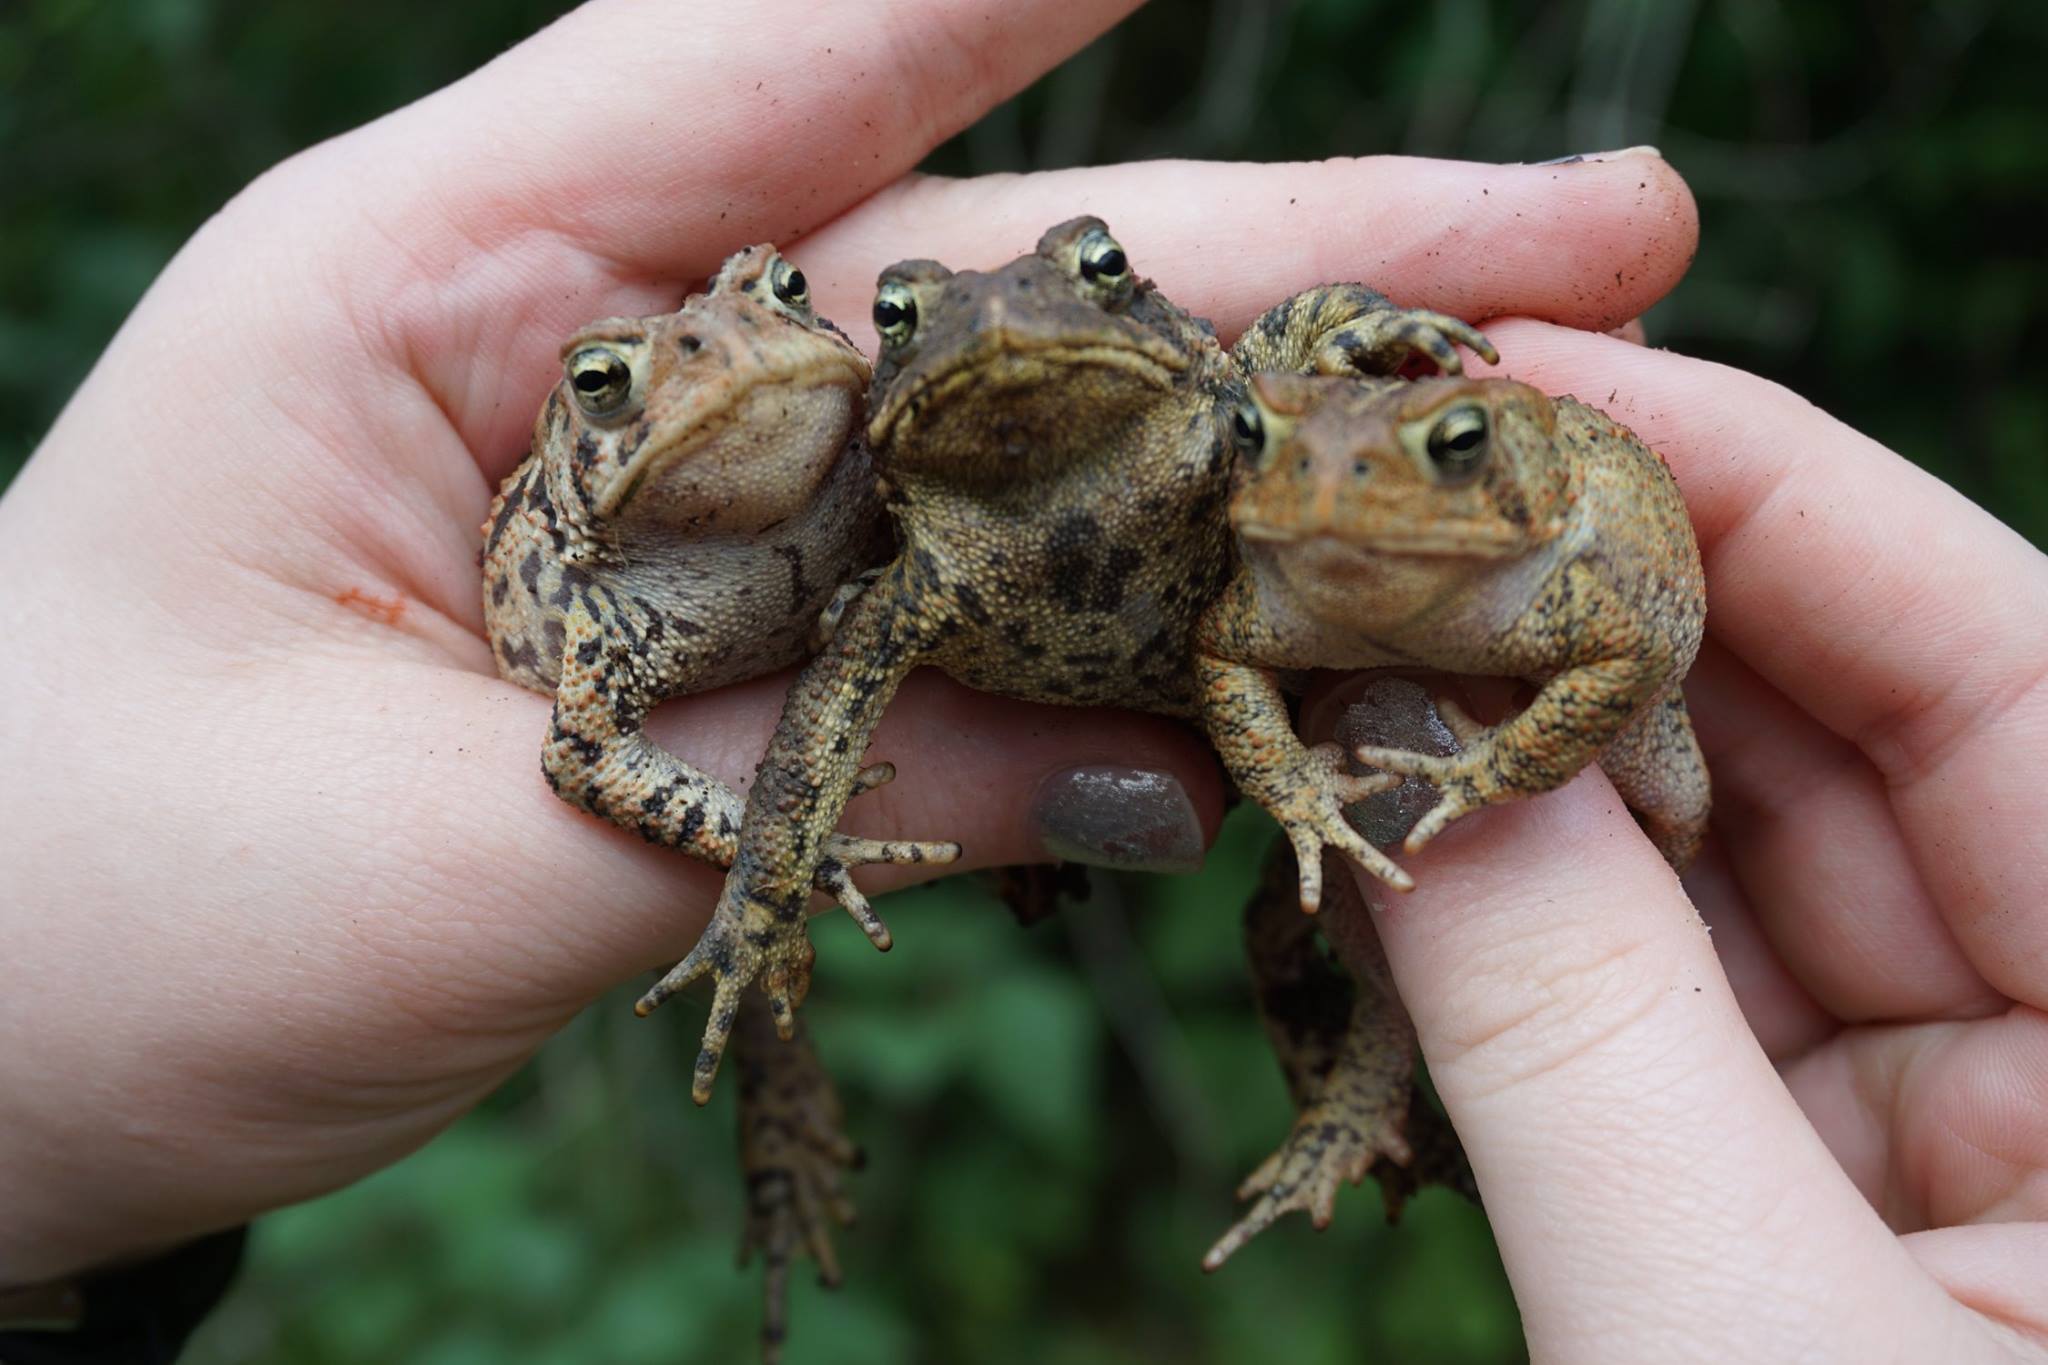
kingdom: Animalia
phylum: Chordata
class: Amphibia
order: Anura
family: Bufonidae
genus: Anaxyrus
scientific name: Anaxyrus americanus
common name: American toad
